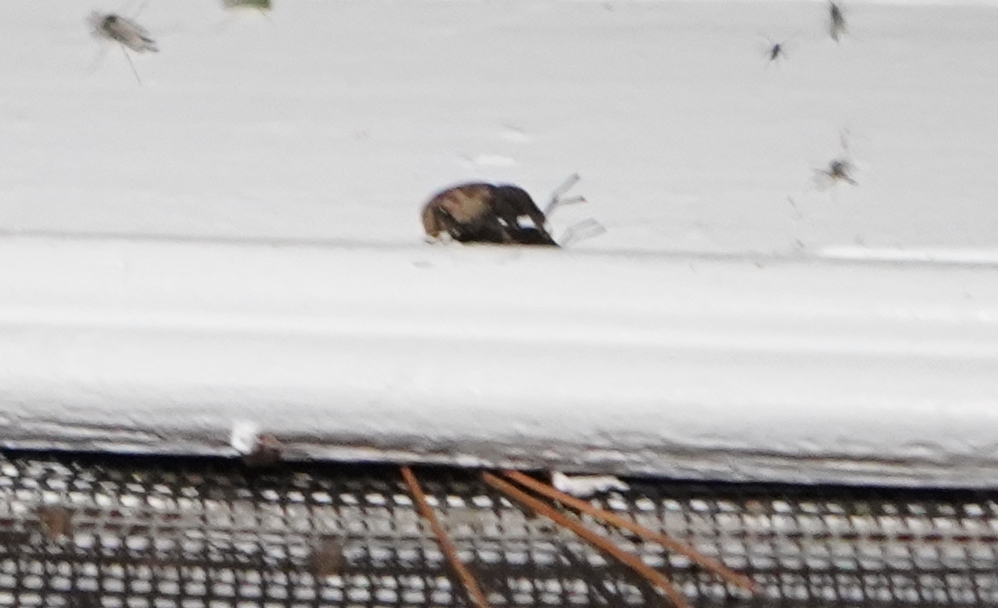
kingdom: Animalia
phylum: Arthropoda
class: Insecta
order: Coleoptera
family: Curculionidae
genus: Otiorhynchus
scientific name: Otiorhynchus raucus
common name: Weevil
